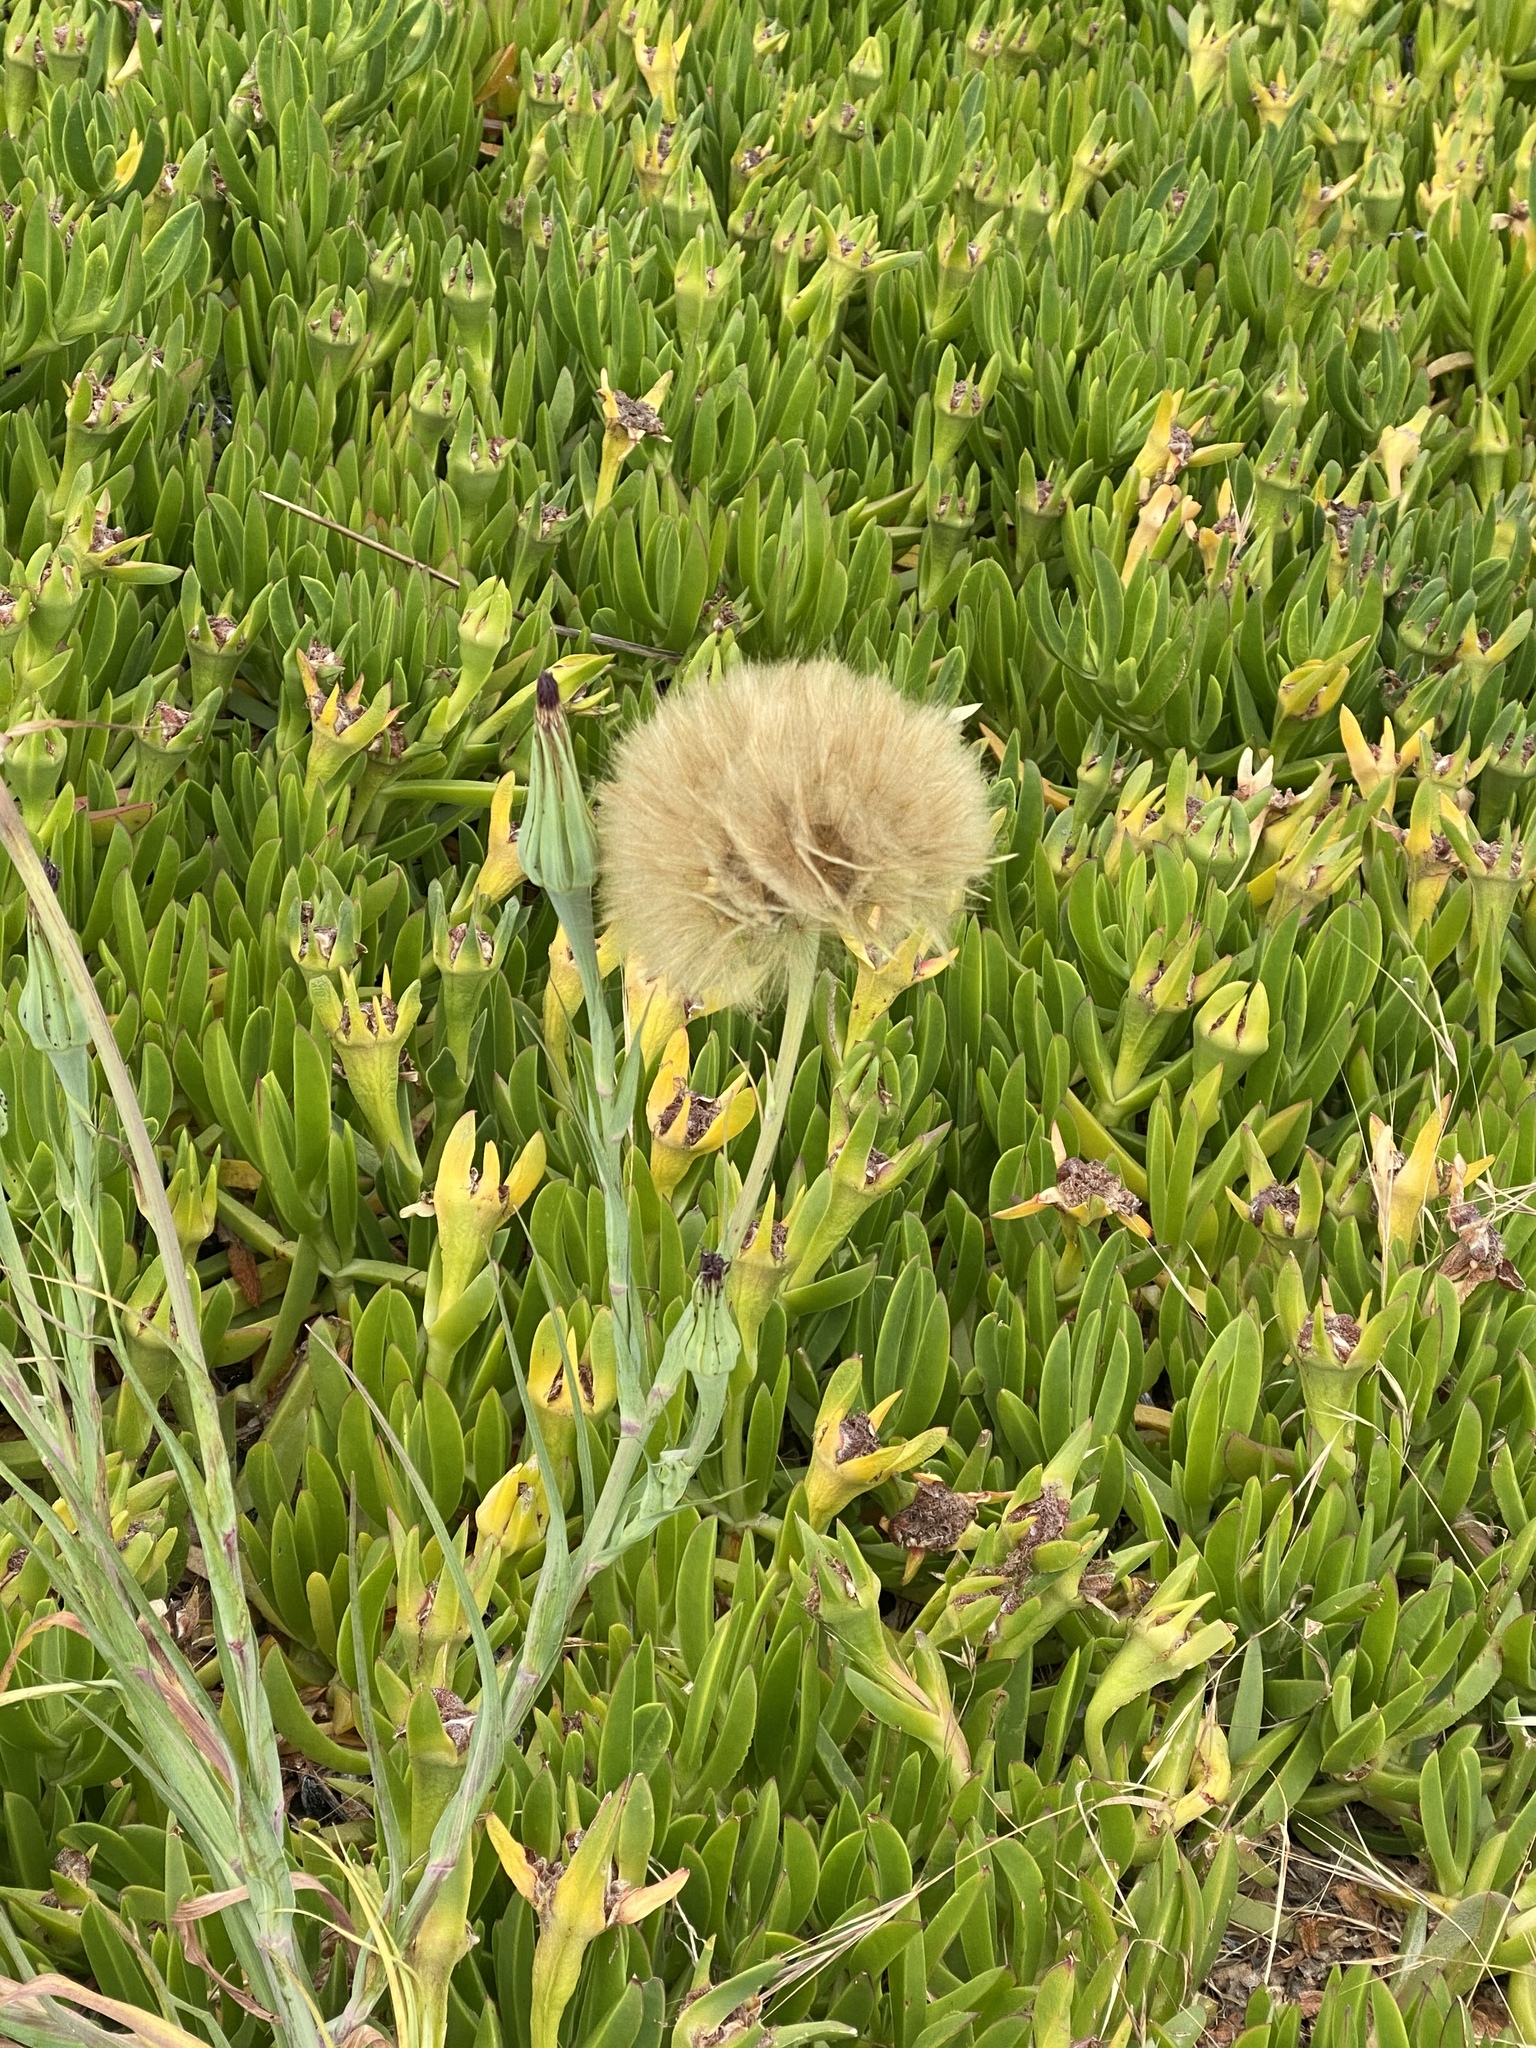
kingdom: Plantae
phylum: Tracheophyta
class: Magnoliopsida
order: Asterales
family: Asteraceae
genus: Tragopogon
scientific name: Tragopogon porrifolius
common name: Salsify
